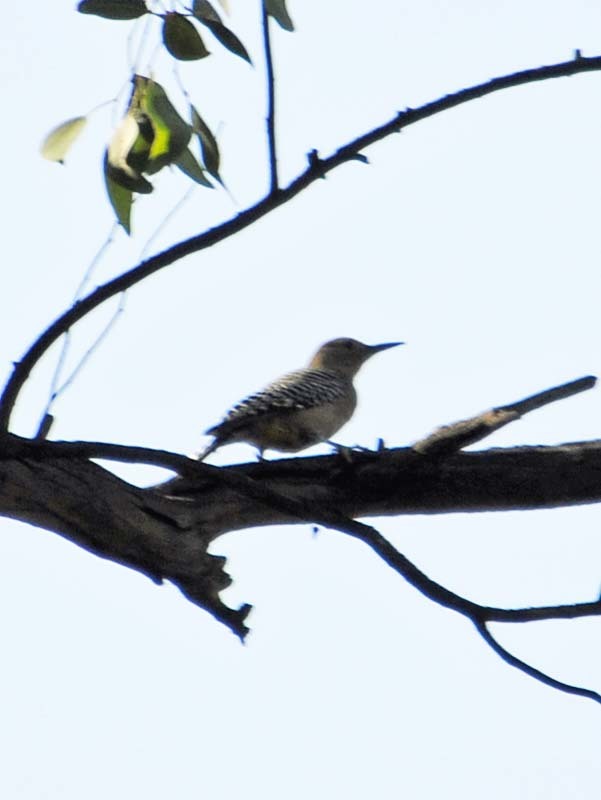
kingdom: Animalia
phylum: Chordata
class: Aves
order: Piciformes
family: Picidae
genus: Melanerpes
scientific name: Melanerpes uropygialis
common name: Gila woodpecker
